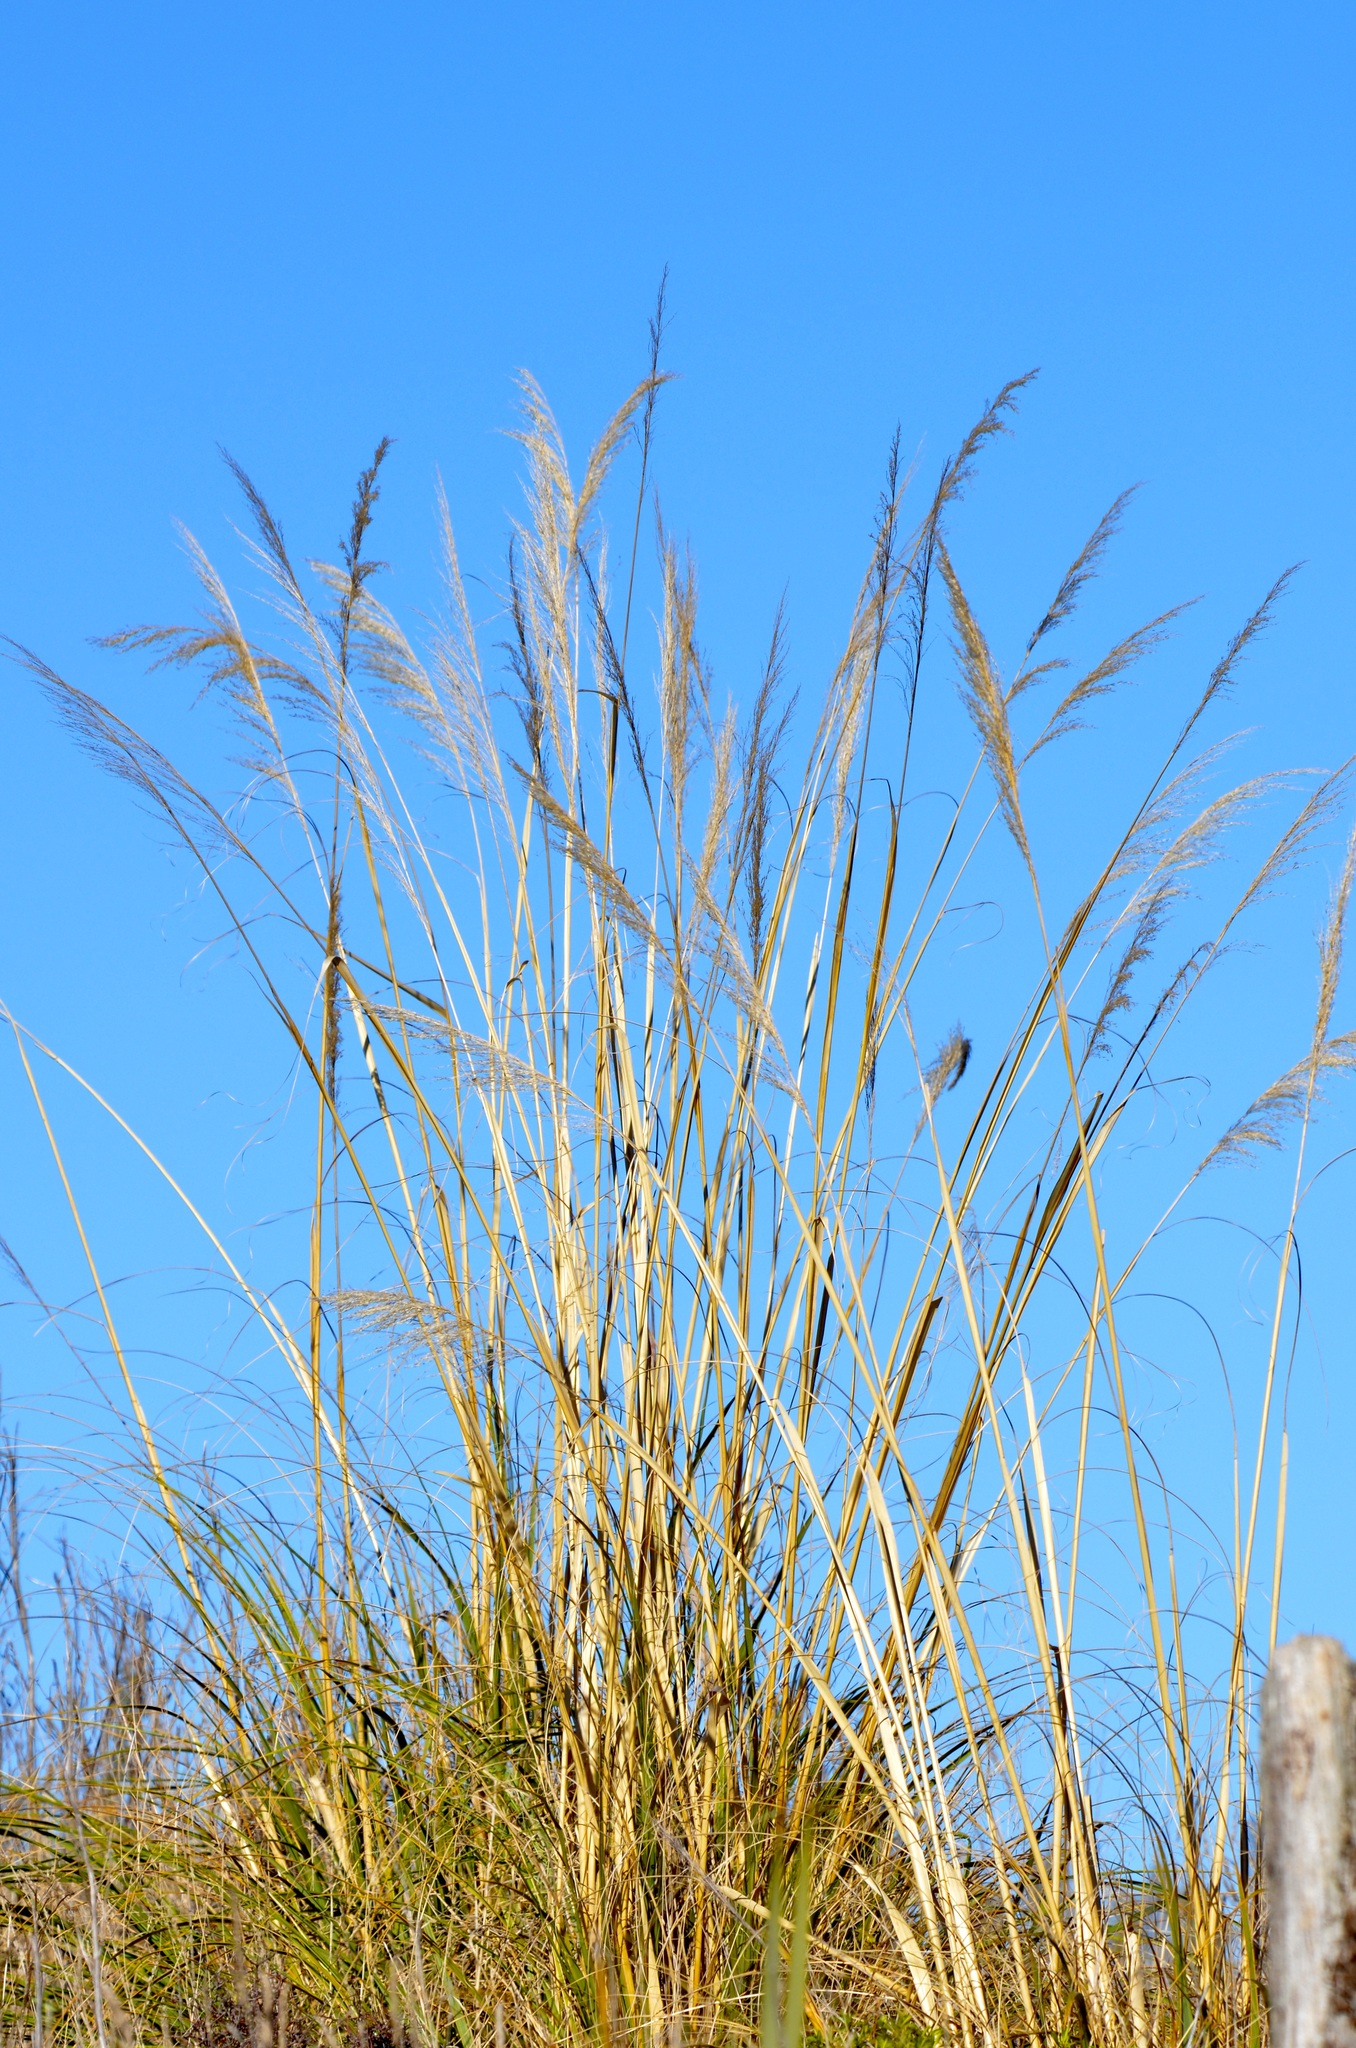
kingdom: Plantae
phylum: Tracheophyta
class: Liliopsida
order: Poales
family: Poaceae
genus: Austroderia
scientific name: Austroderia richardii
